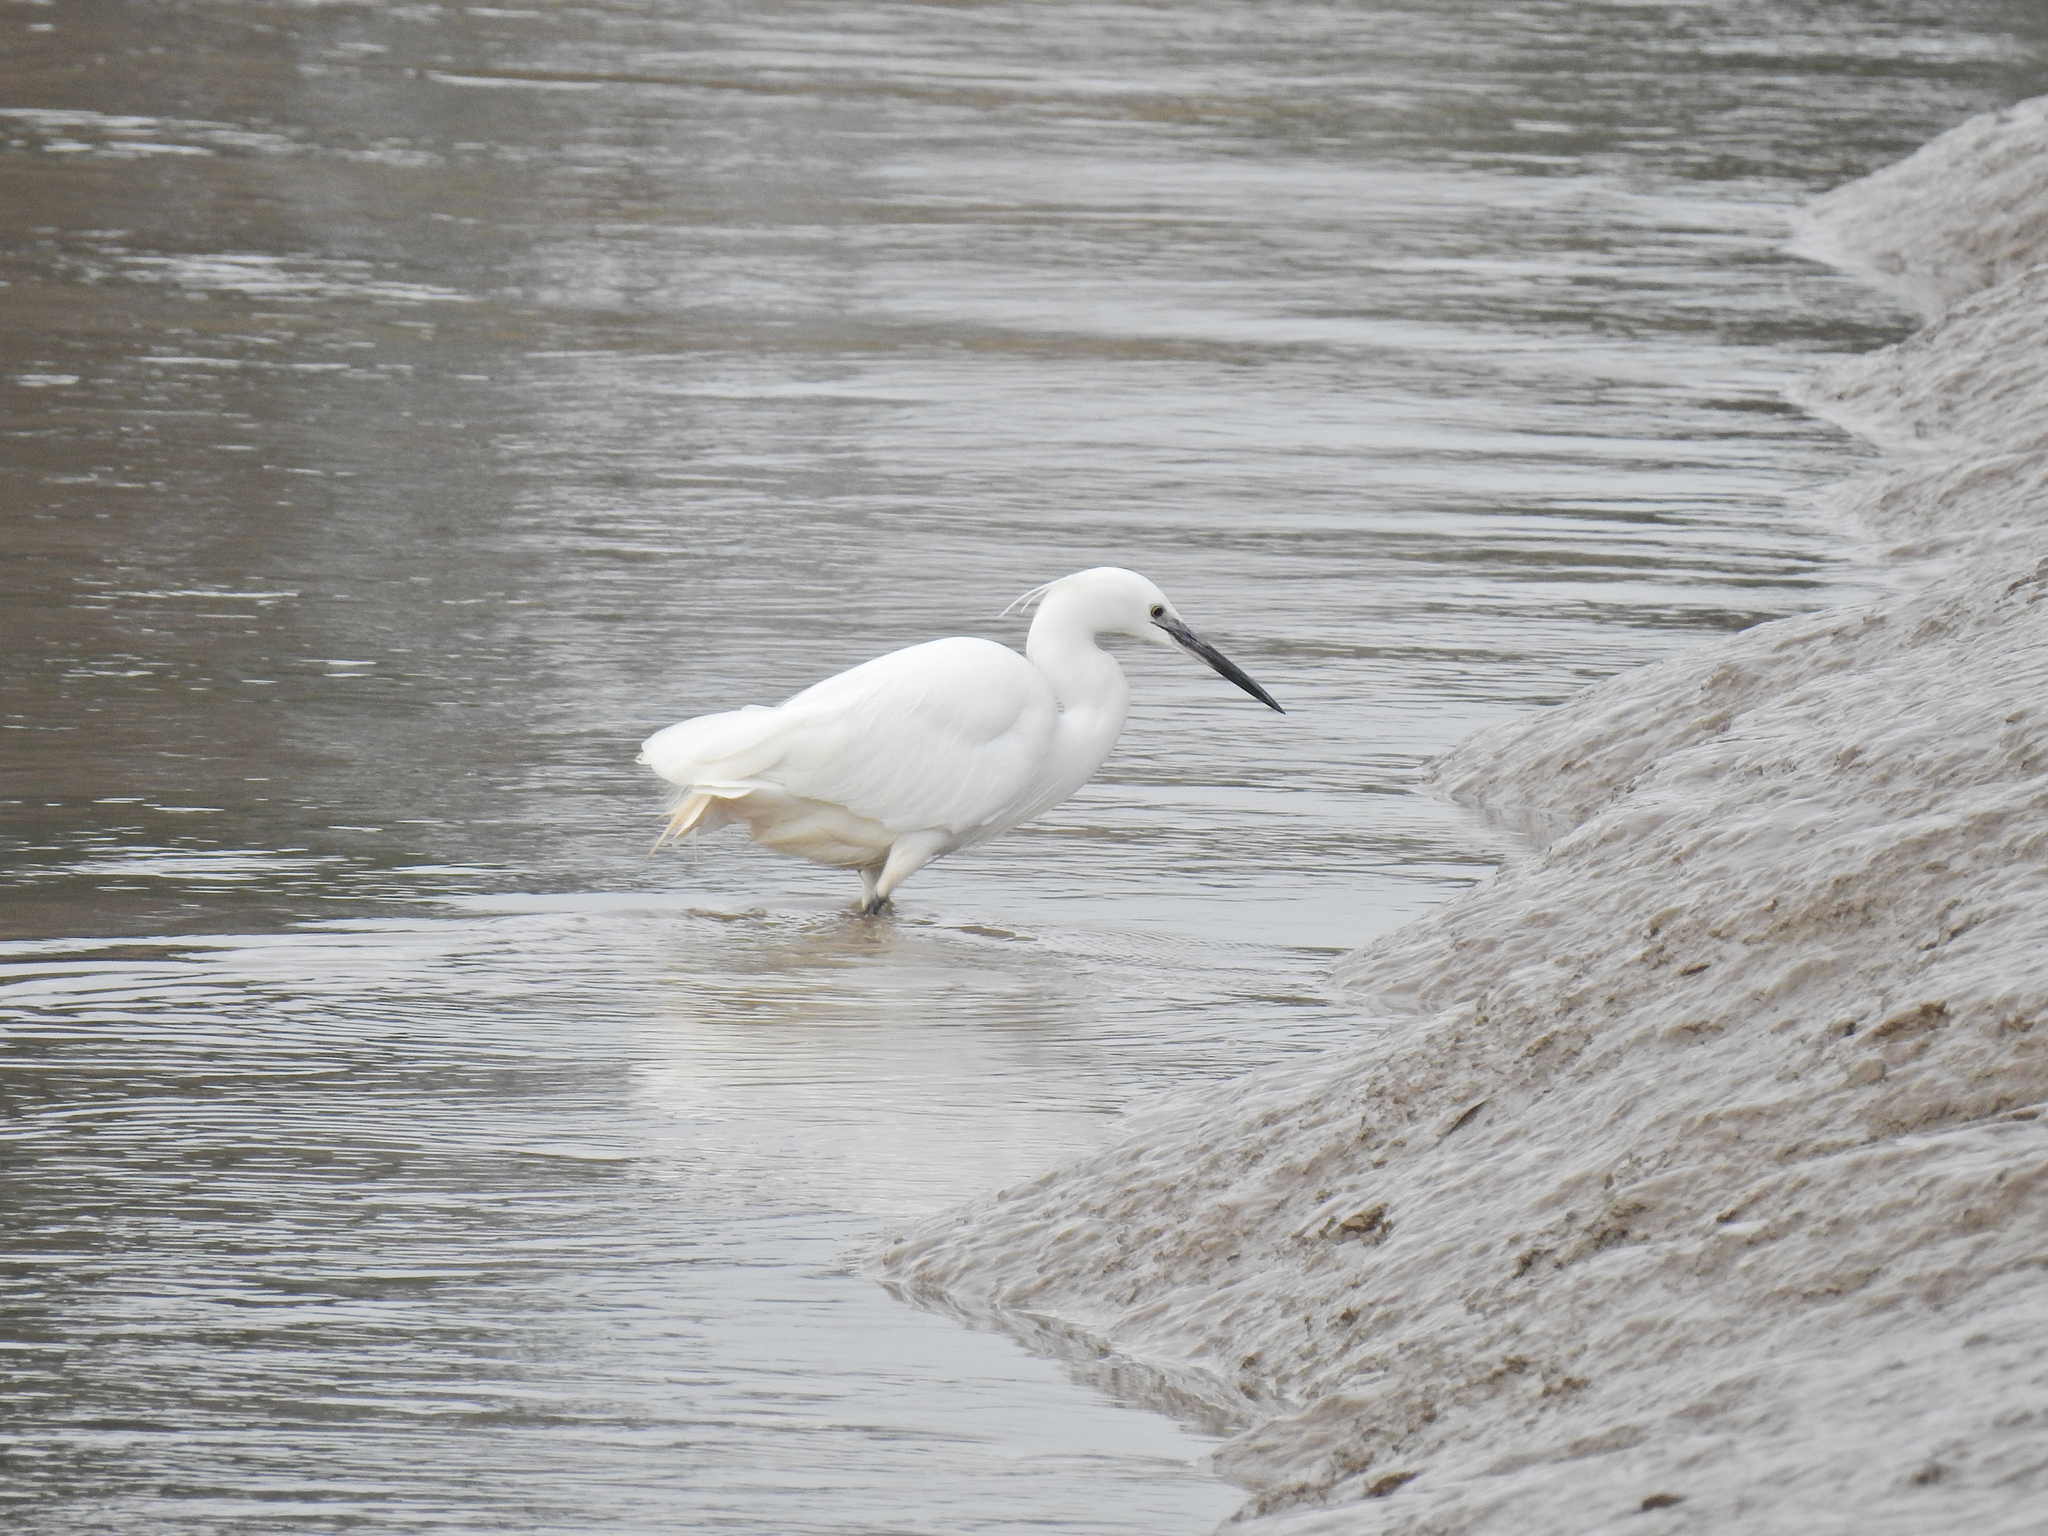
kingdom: Animalia
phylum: Chordata
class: Aves
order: Pelecaniformes
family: Ardeidae
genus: Egretta
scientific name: Egretta garzetta
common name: Little egret
